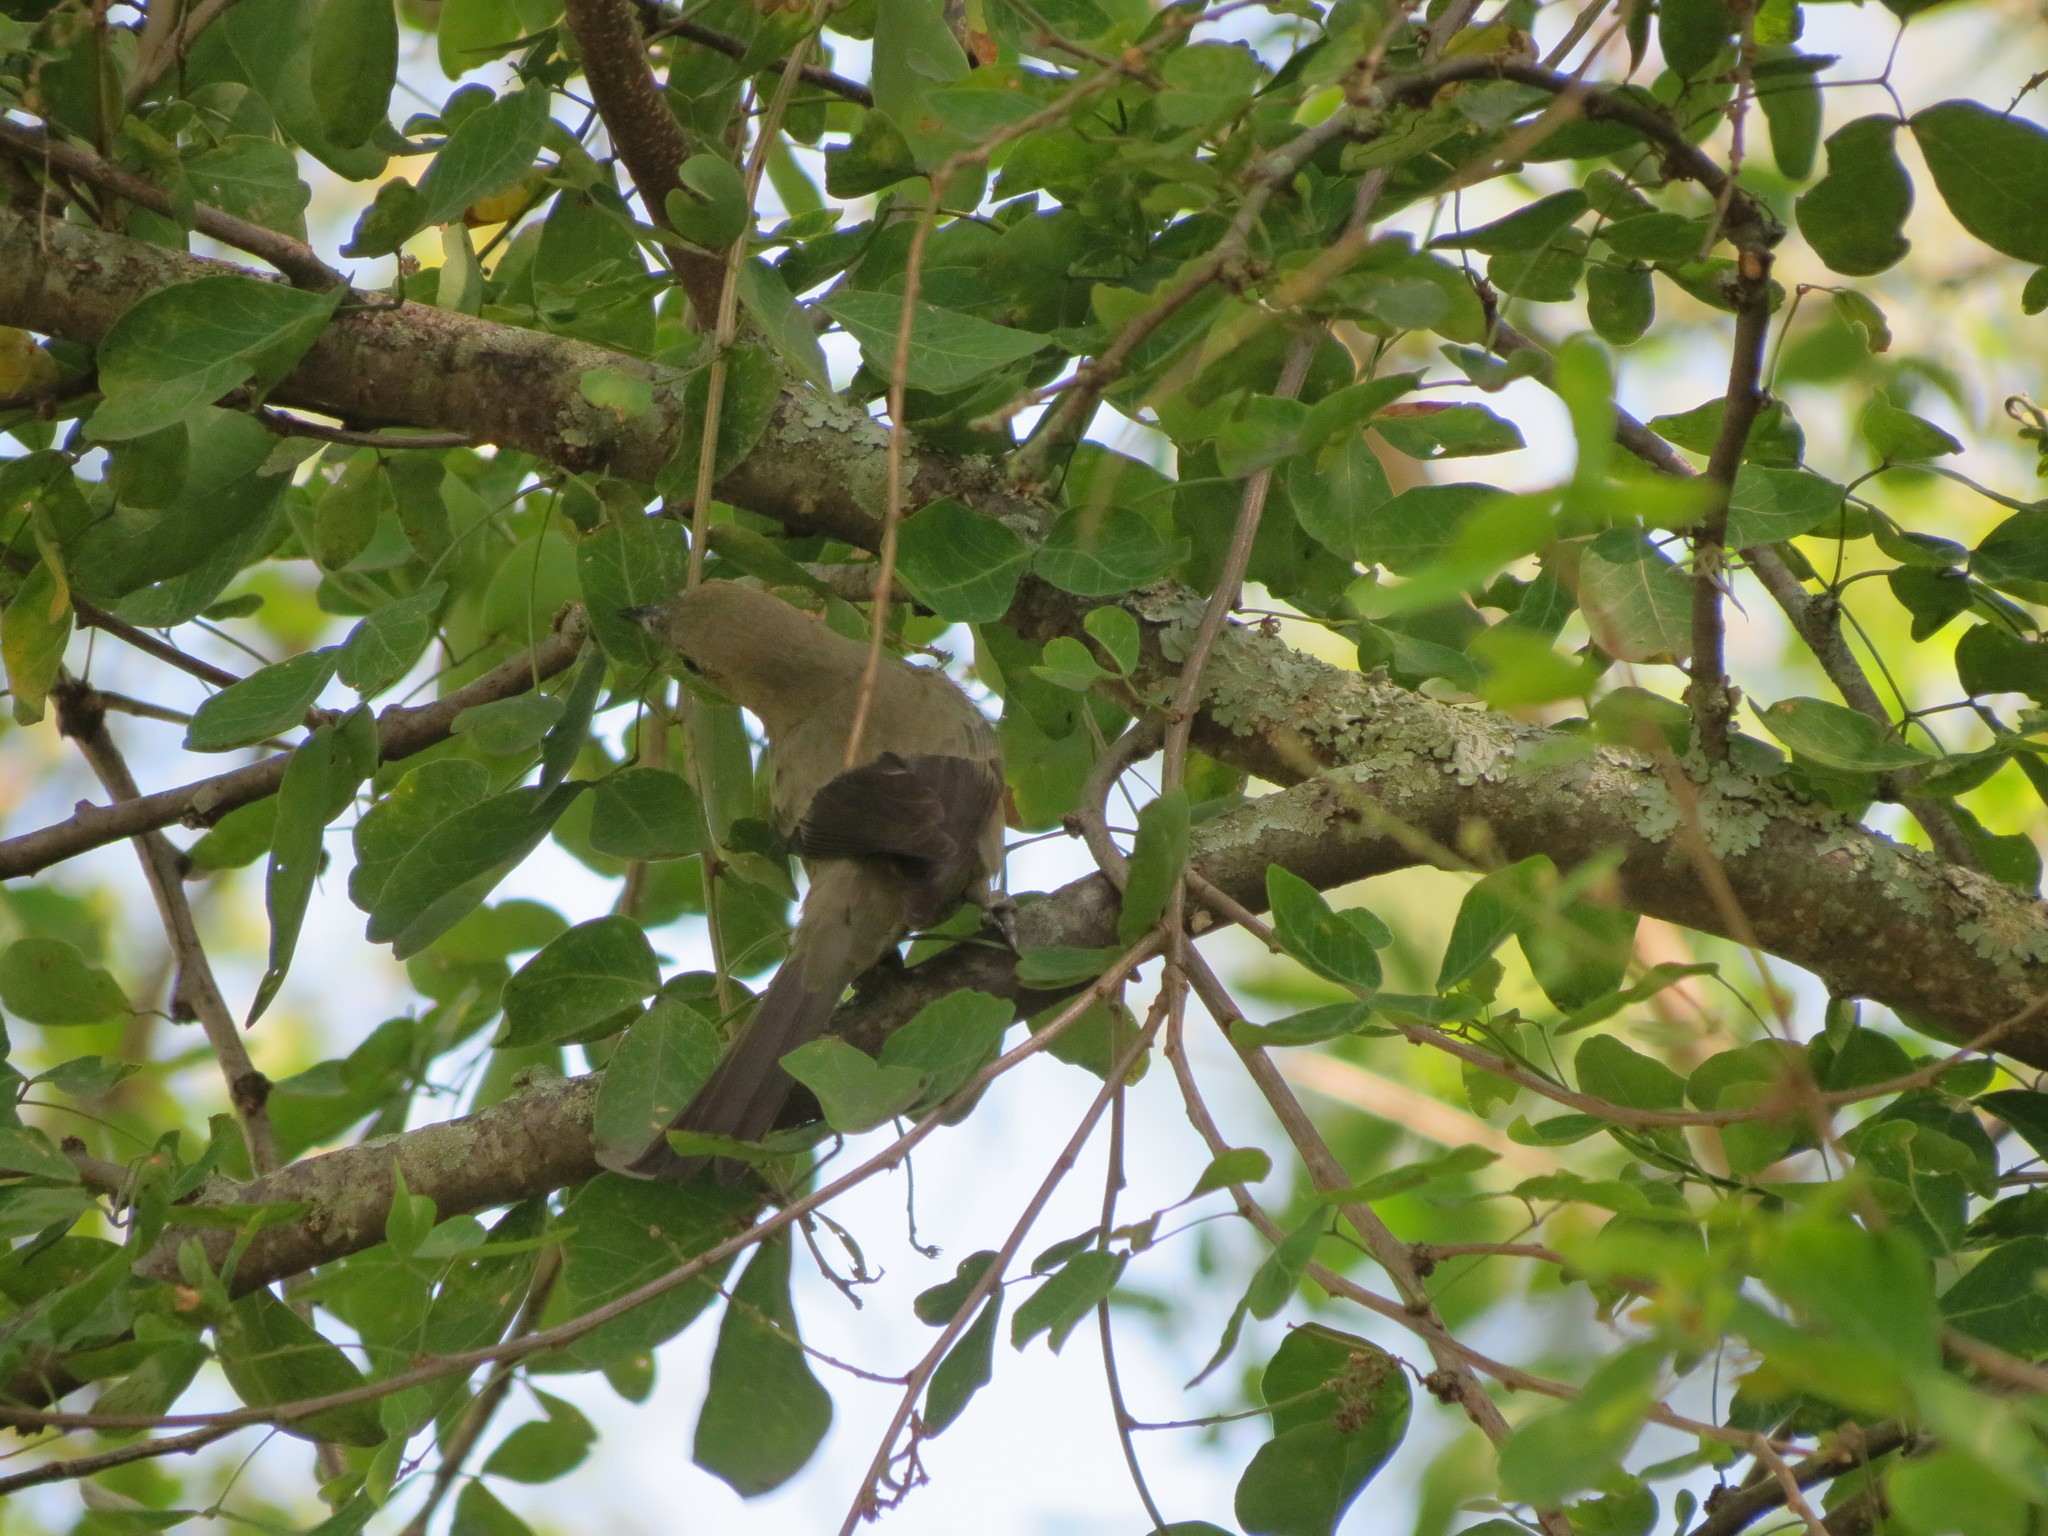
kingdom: Animalia
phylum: Chordata
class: Aves
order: Passeriformes
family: Thraupidae
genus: Thraupis
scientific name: Thraupis palmarum
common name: Palm tanager
